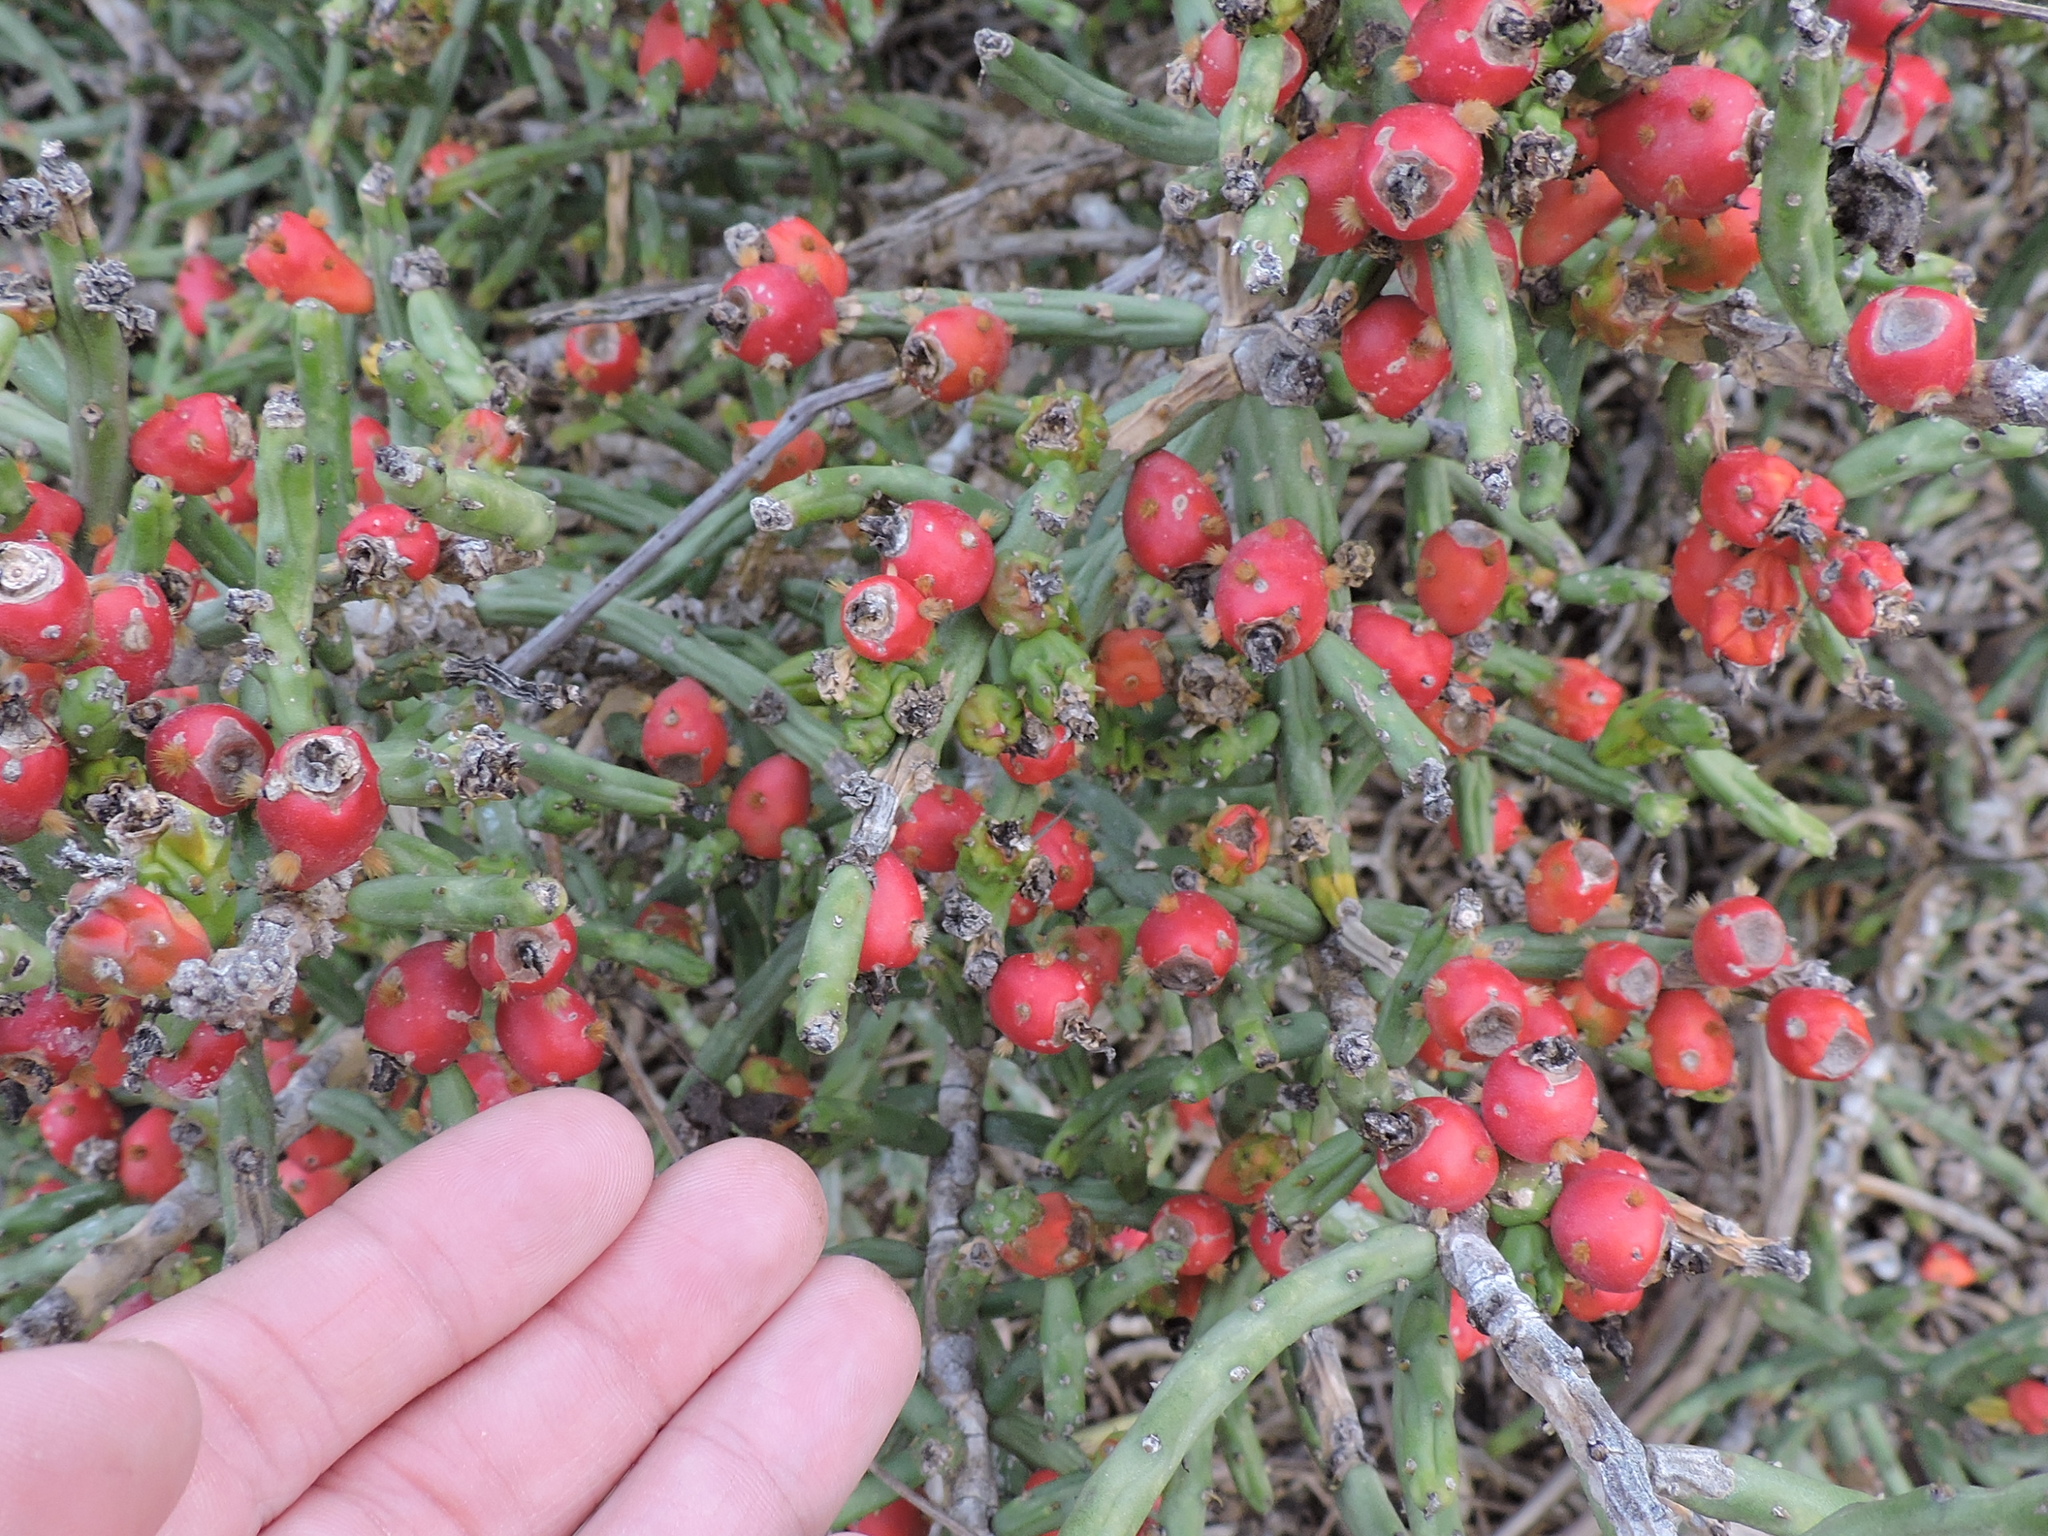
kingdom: Plantae
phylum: Tracheophyta
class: Magnoliopsida
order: Caryophyllales
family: Cactaceae
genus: Cylindropuntia
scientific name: Cylindropuntia leptocaulis
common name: Christmas cactus
